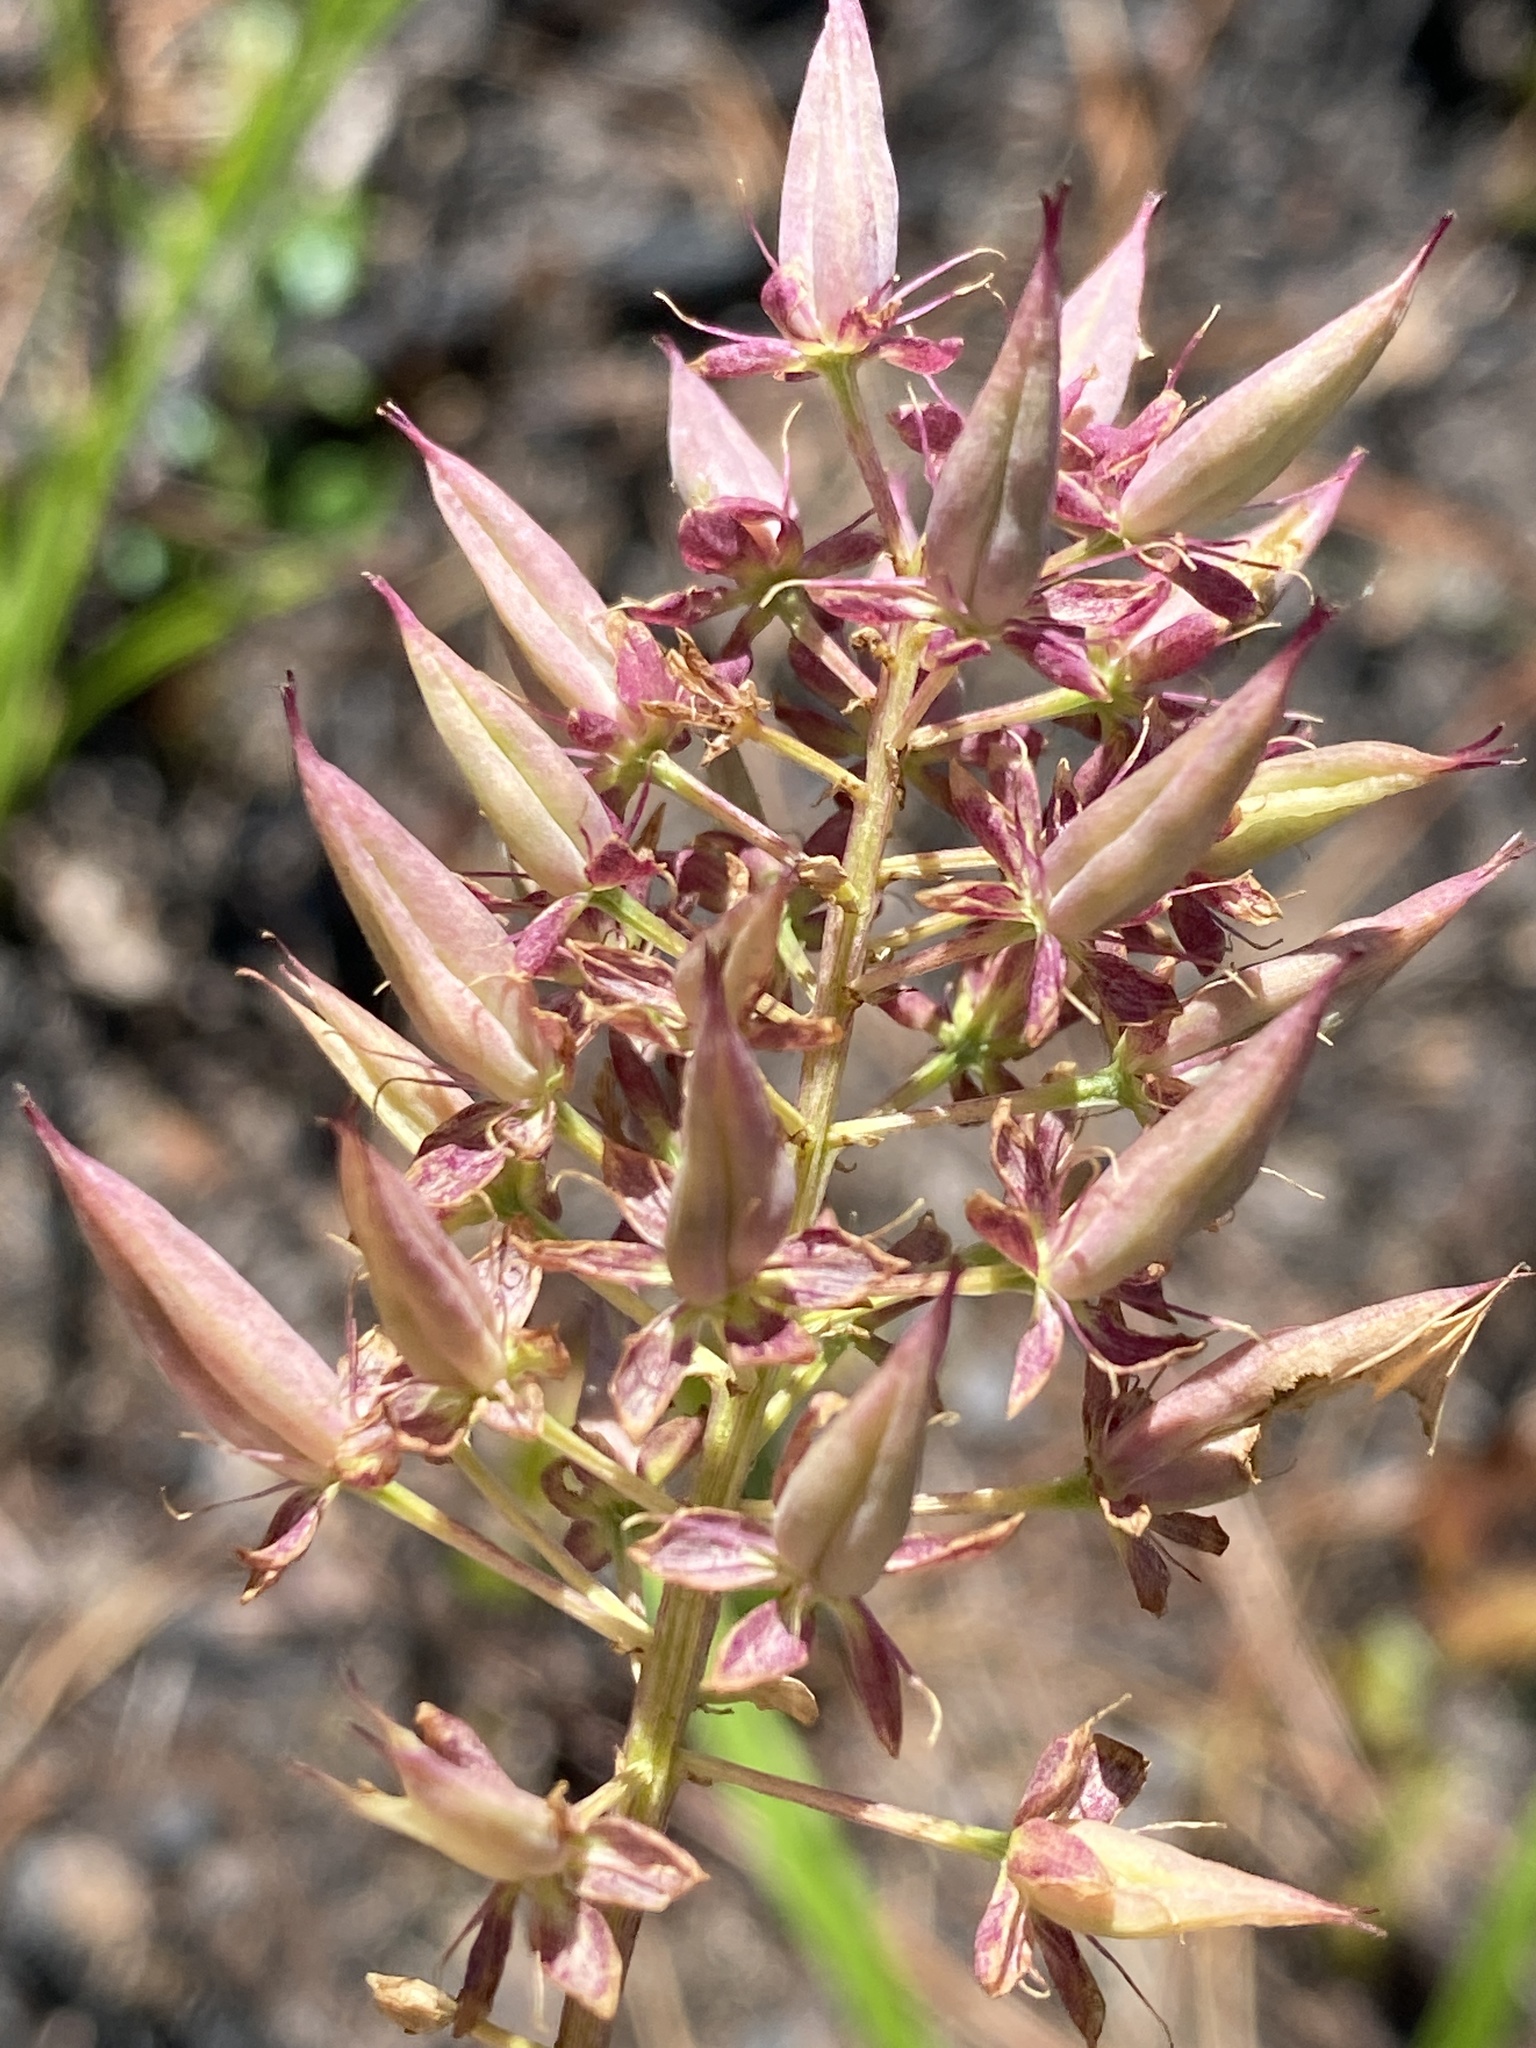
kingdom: Plantae
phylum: Tracheophyta
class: Liliopsida
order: Liliales
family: Melanthiaceae
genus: Stenanthium
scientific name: Stenanthium densum
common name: Crow-poison
